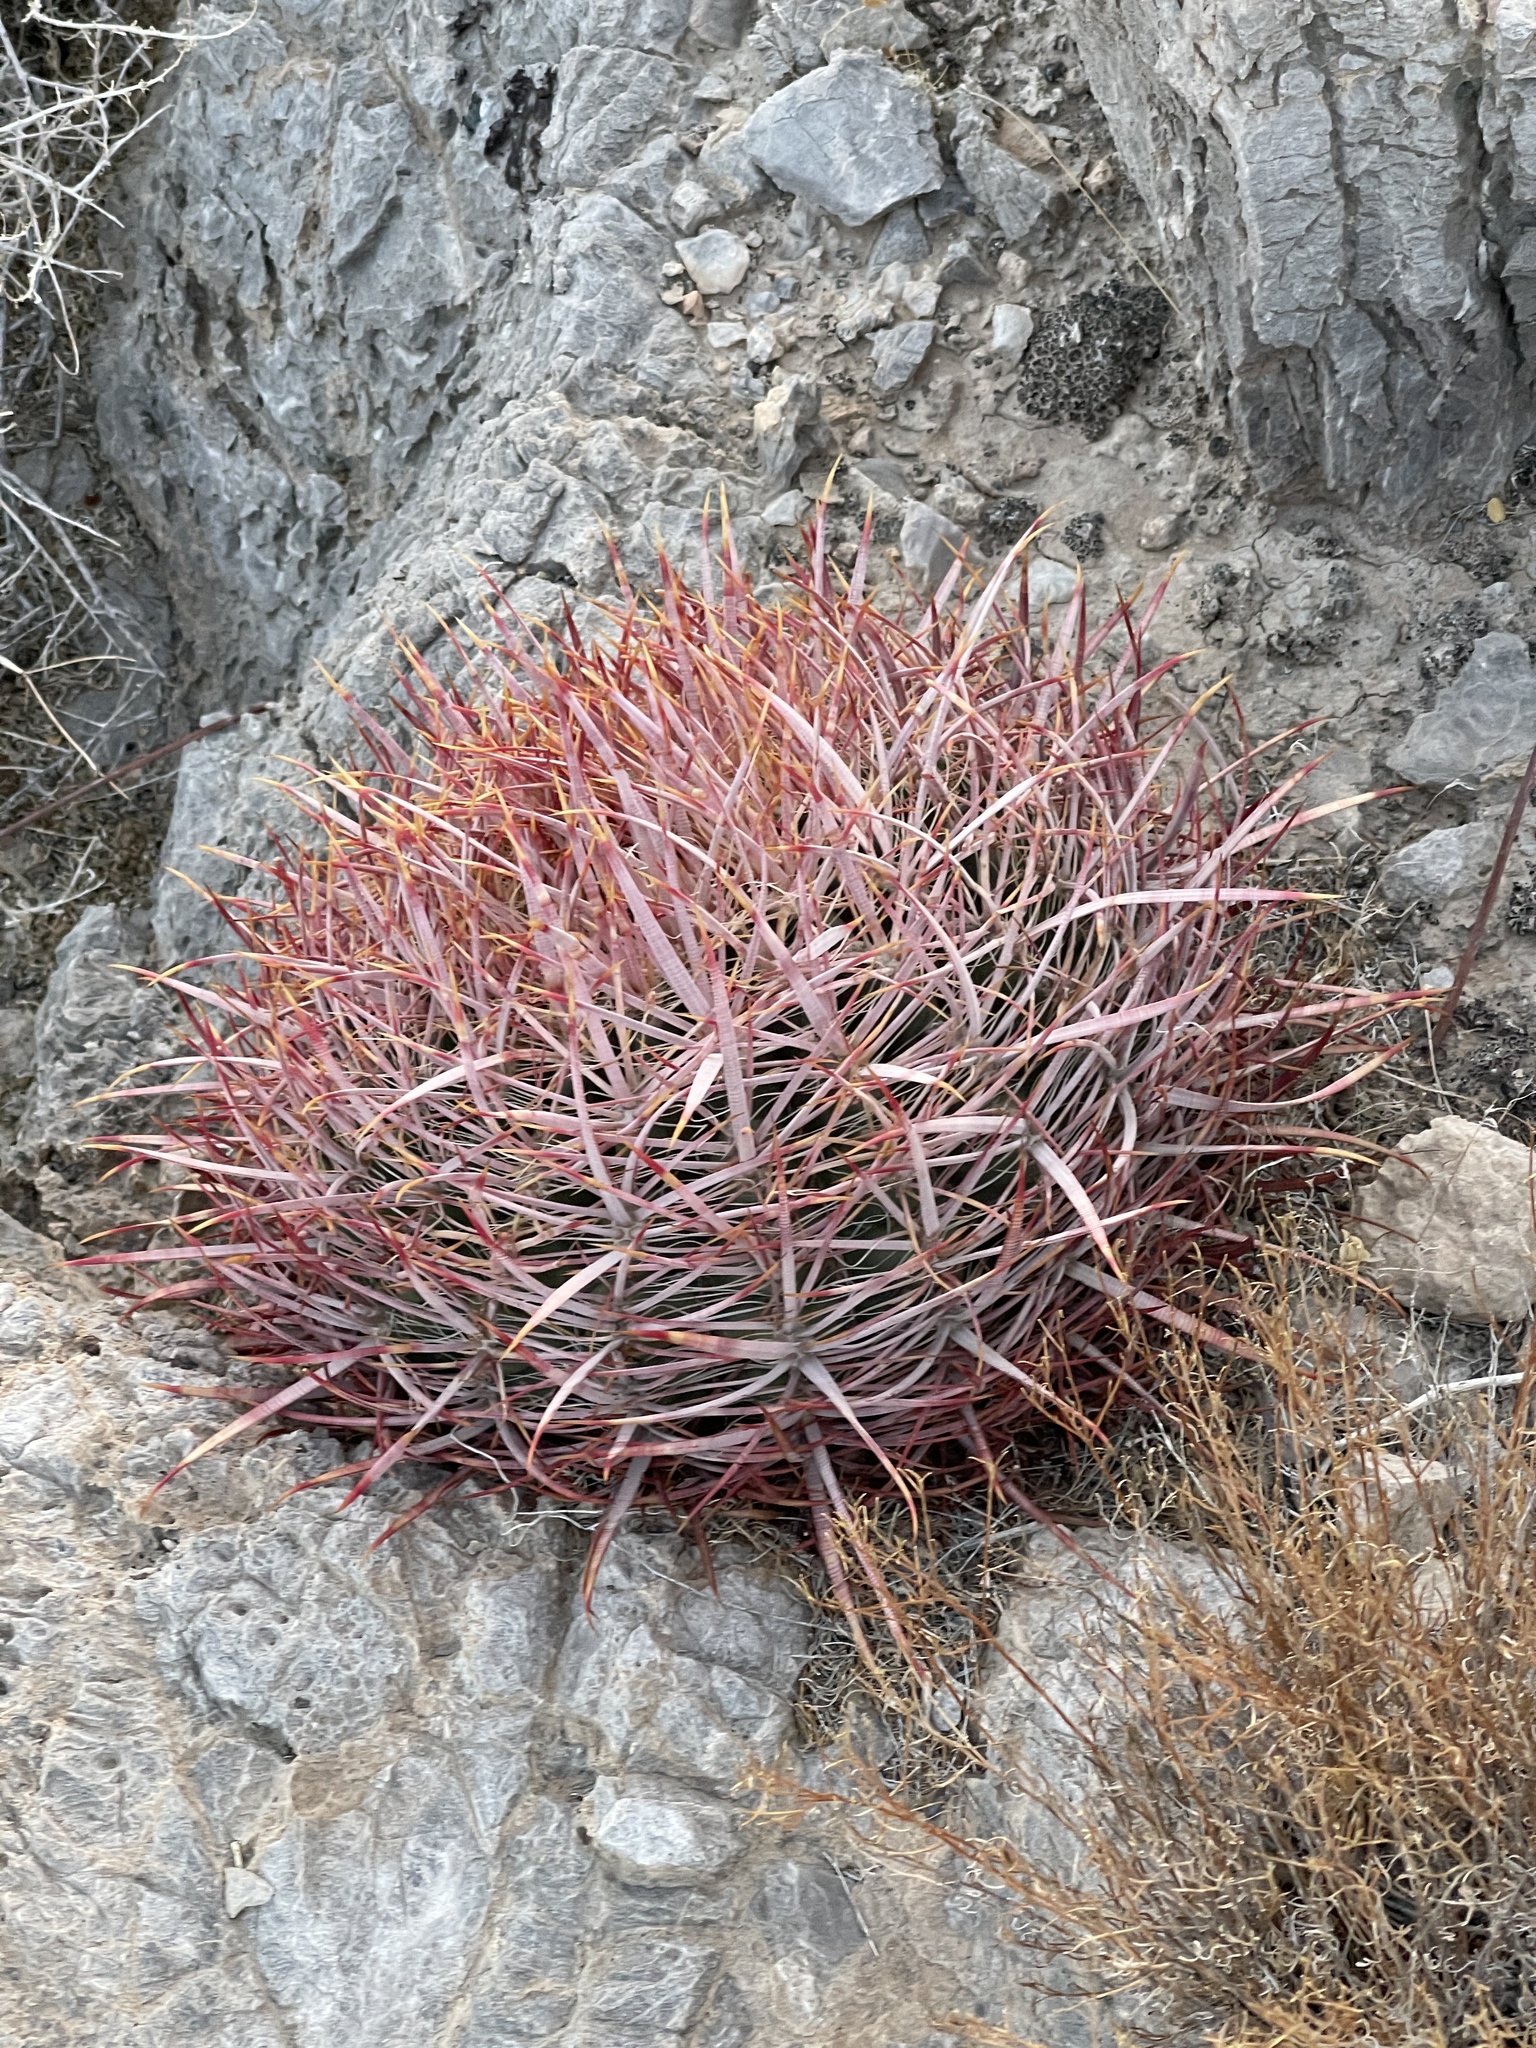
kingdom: Plantae
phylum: Tracheophyta
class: Magnoliopsida
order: Caryophyllales
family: Cactaceae
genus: Ferocactus
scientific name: Ferocactus cylindraceus
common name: California barrel cactus
